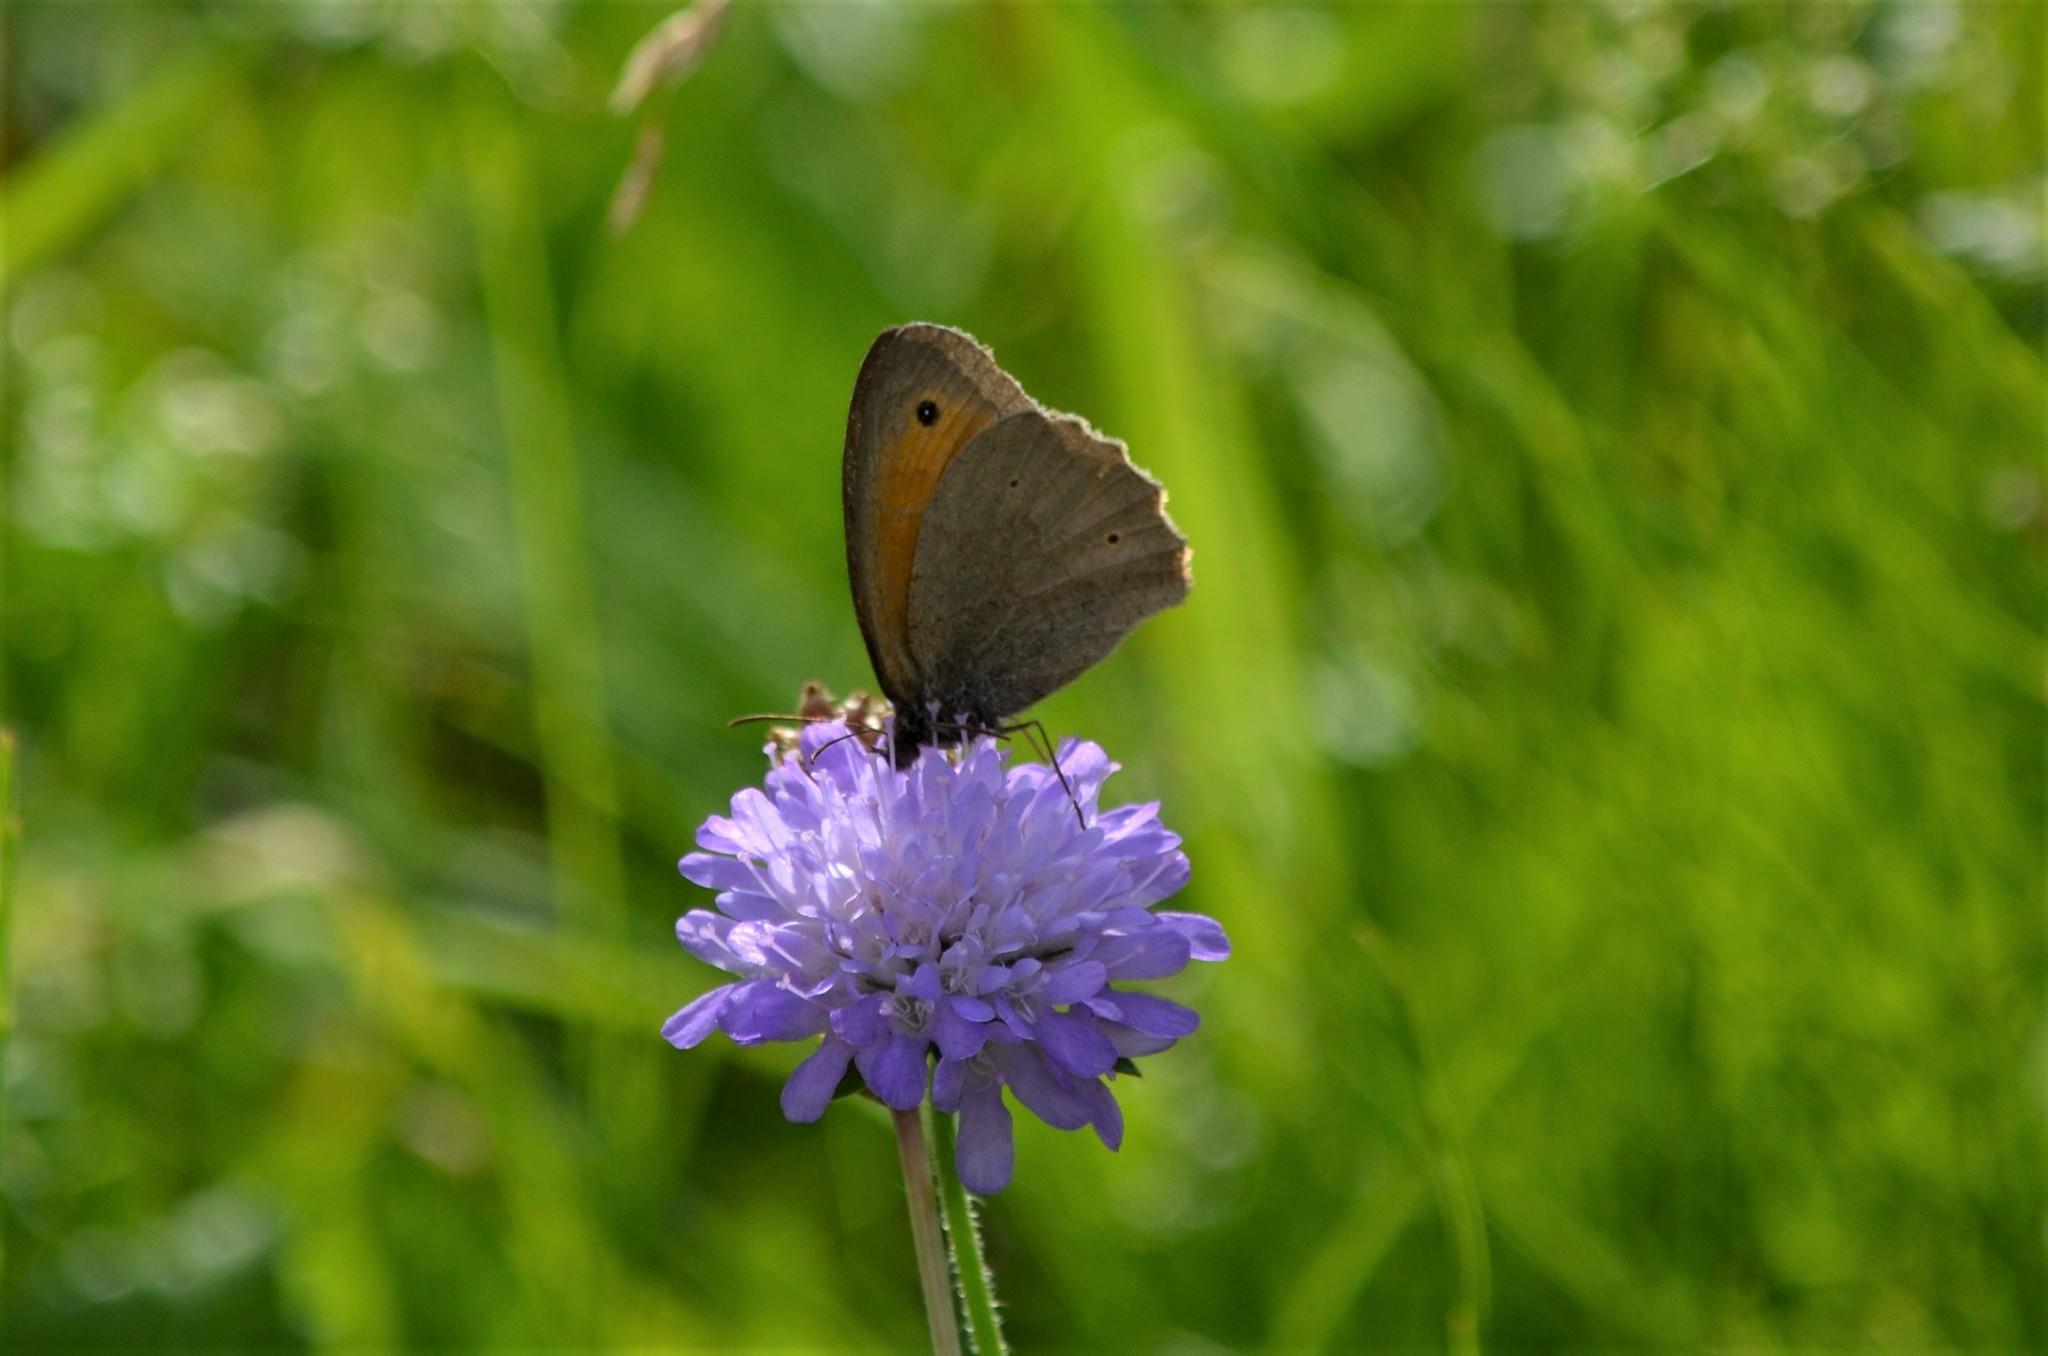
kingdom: Animalia
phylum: Arthropoda
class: Insecta
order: Lepidoptera
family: Nymphalidae
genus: Maniola
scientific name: Maniola jurtina
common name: Meadow brown
